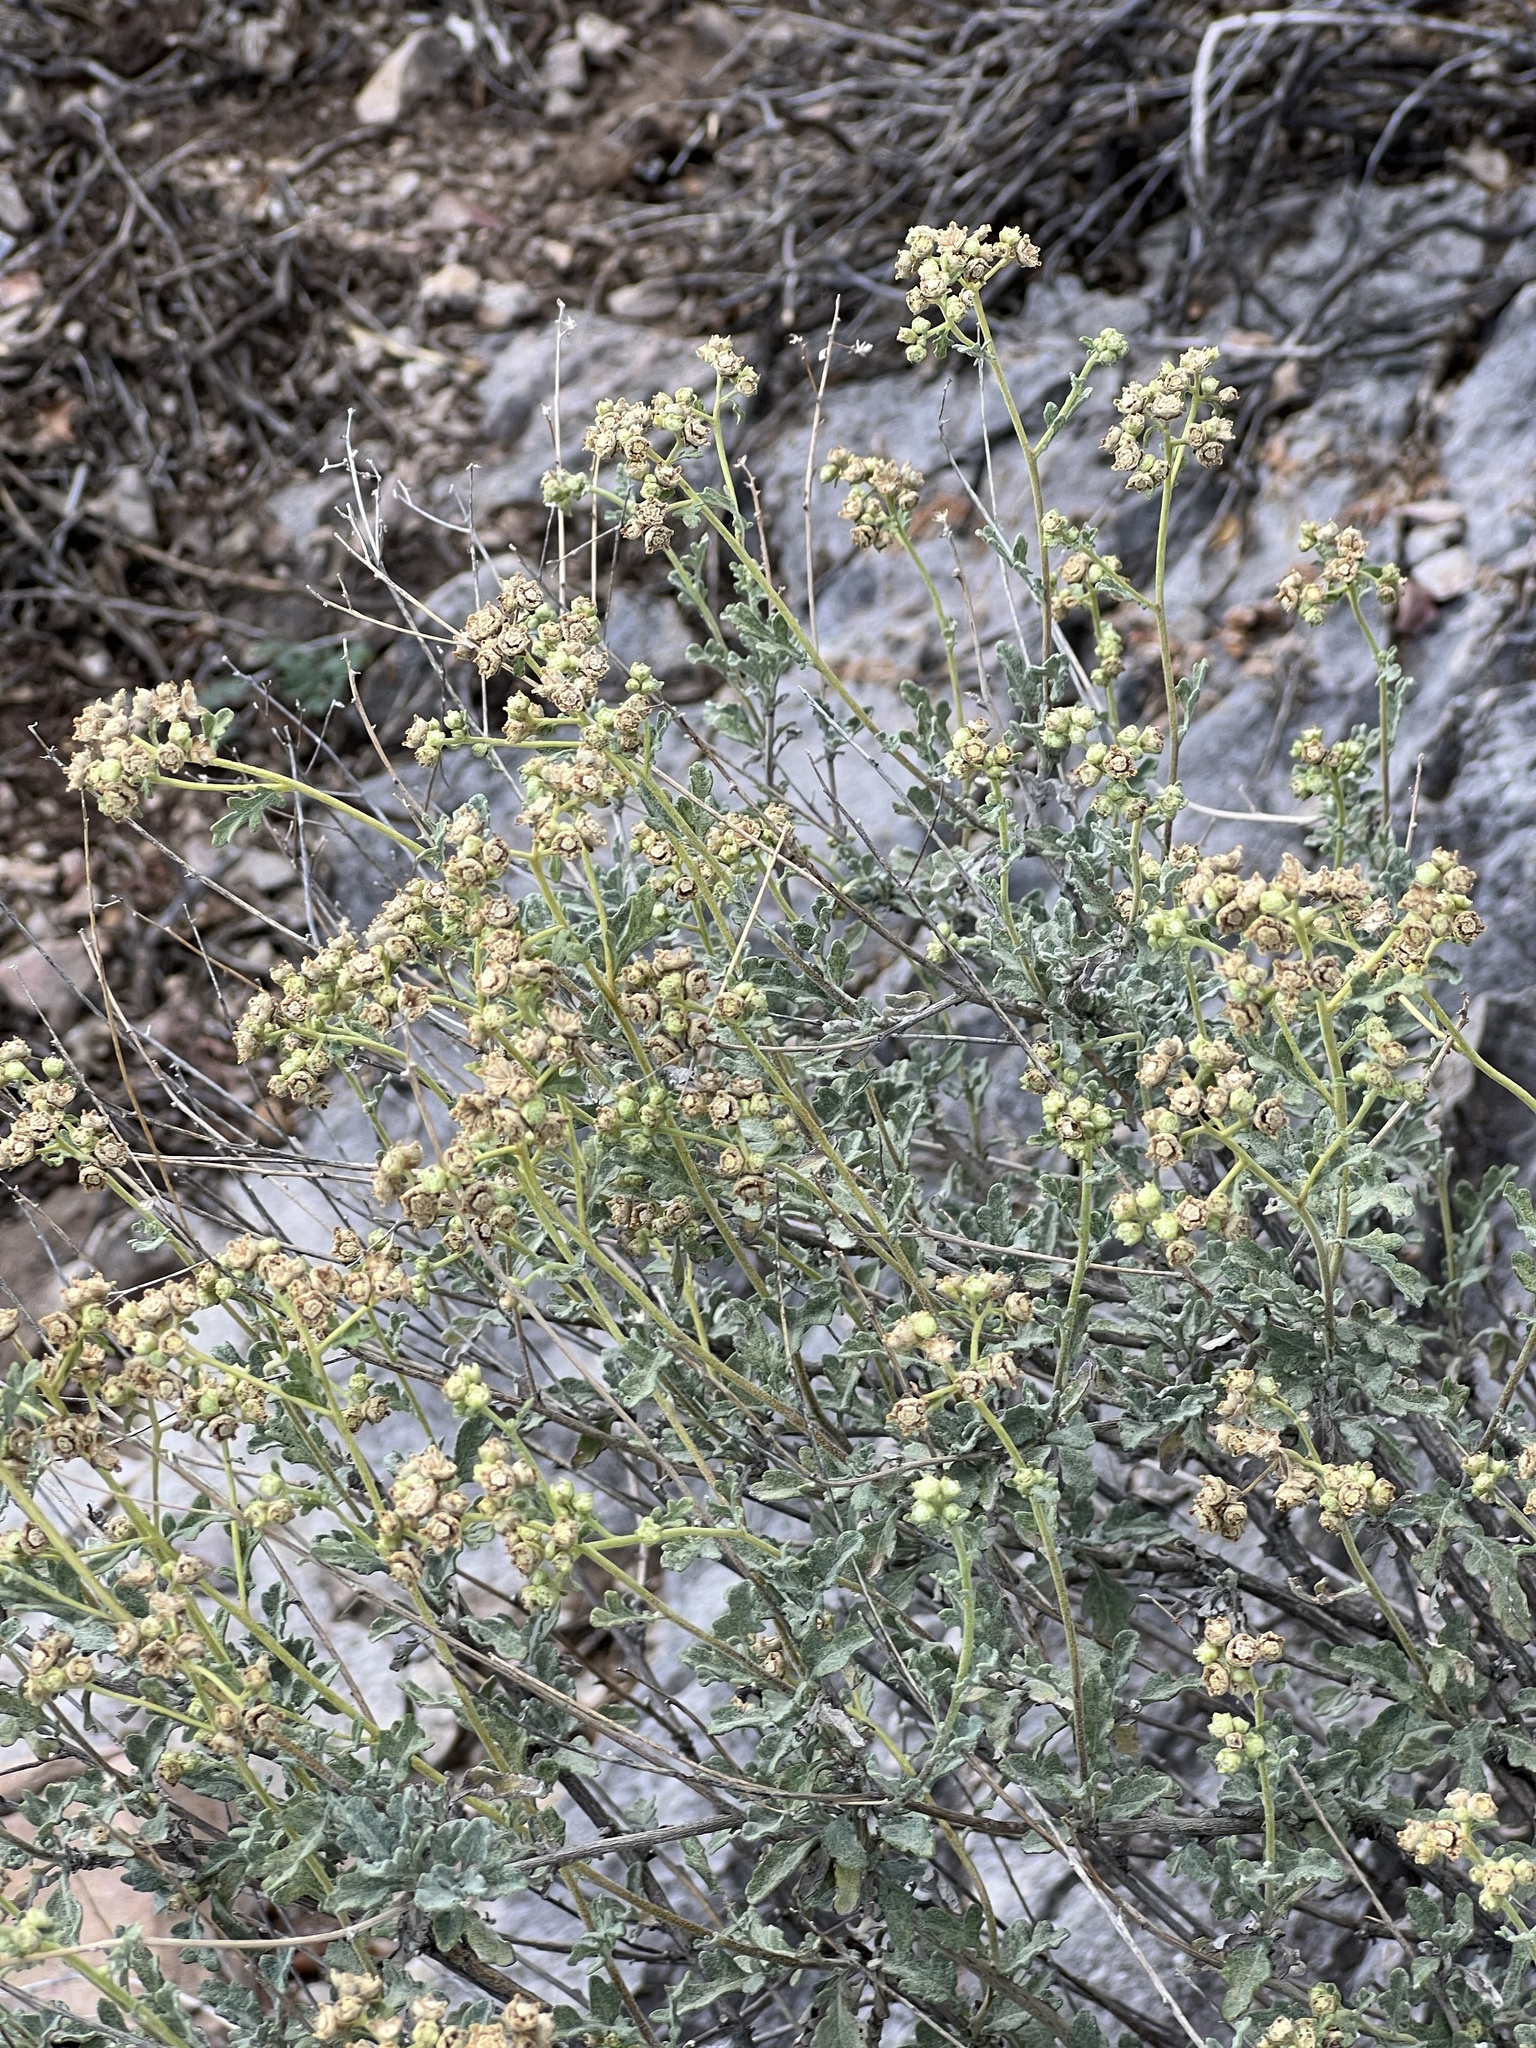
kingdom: Plantae
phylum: Tracheophyta
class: Magnoliopsida
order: Asterales
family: Asteraceae
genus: Parthenium
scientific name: Parthenium incanum
